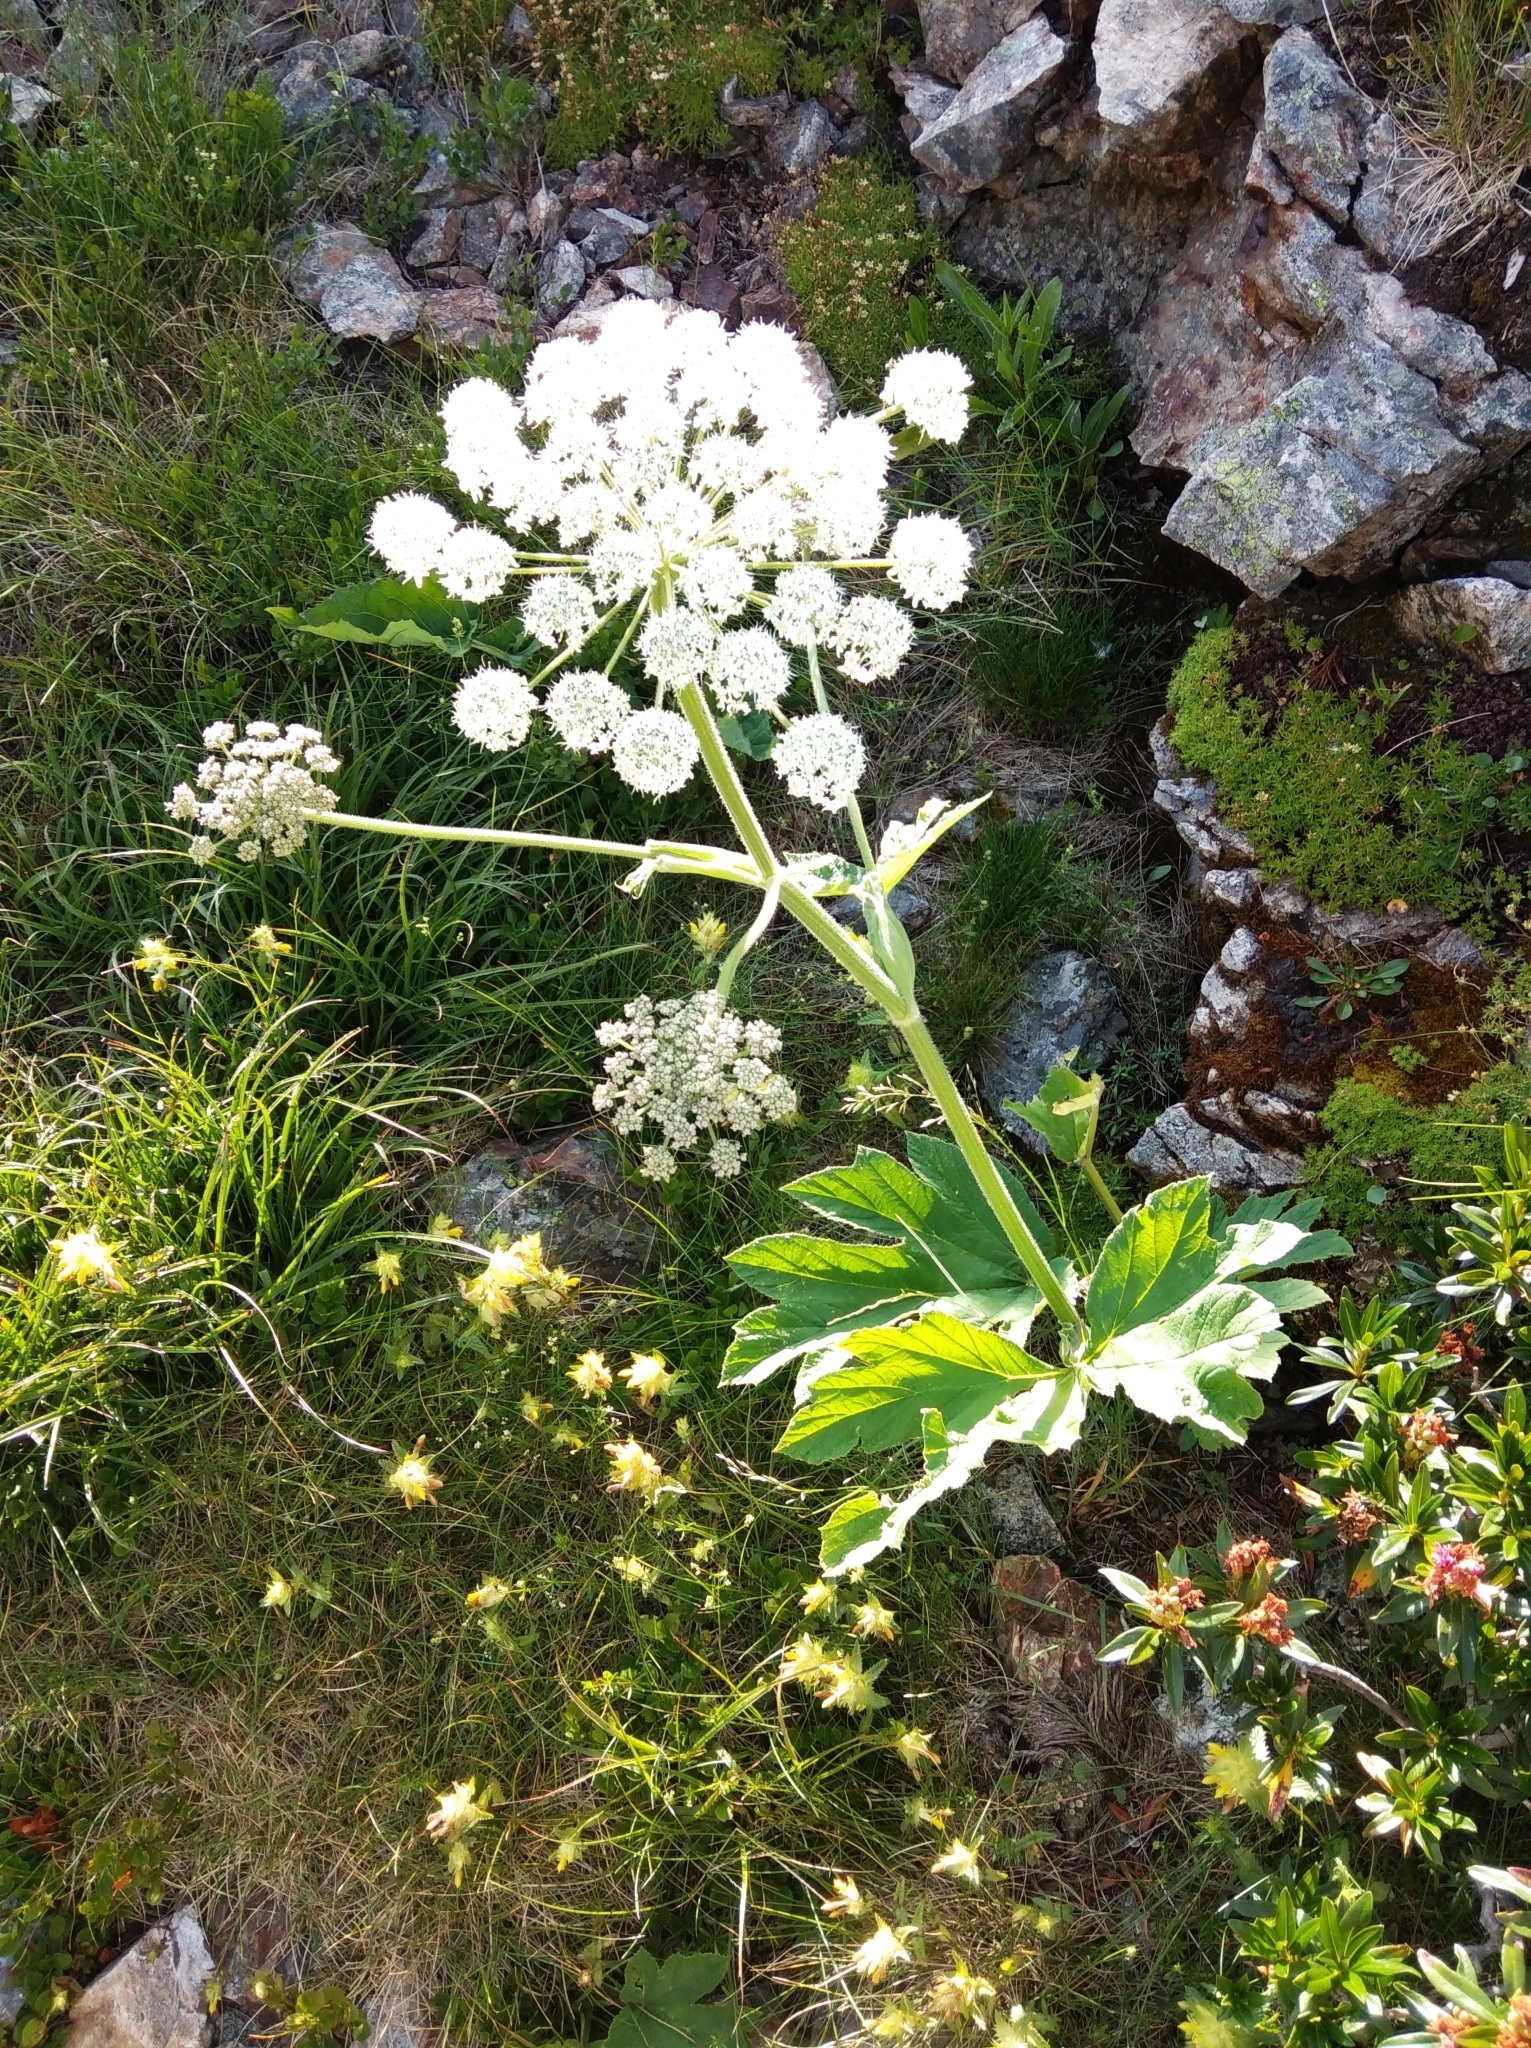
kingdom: Plantae
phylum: Tracheophyta
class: Magnoliopsida
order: Apiales
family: Apiaceae
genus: Heracleum
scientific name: Heracleum sphondylium
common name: Hogweed
